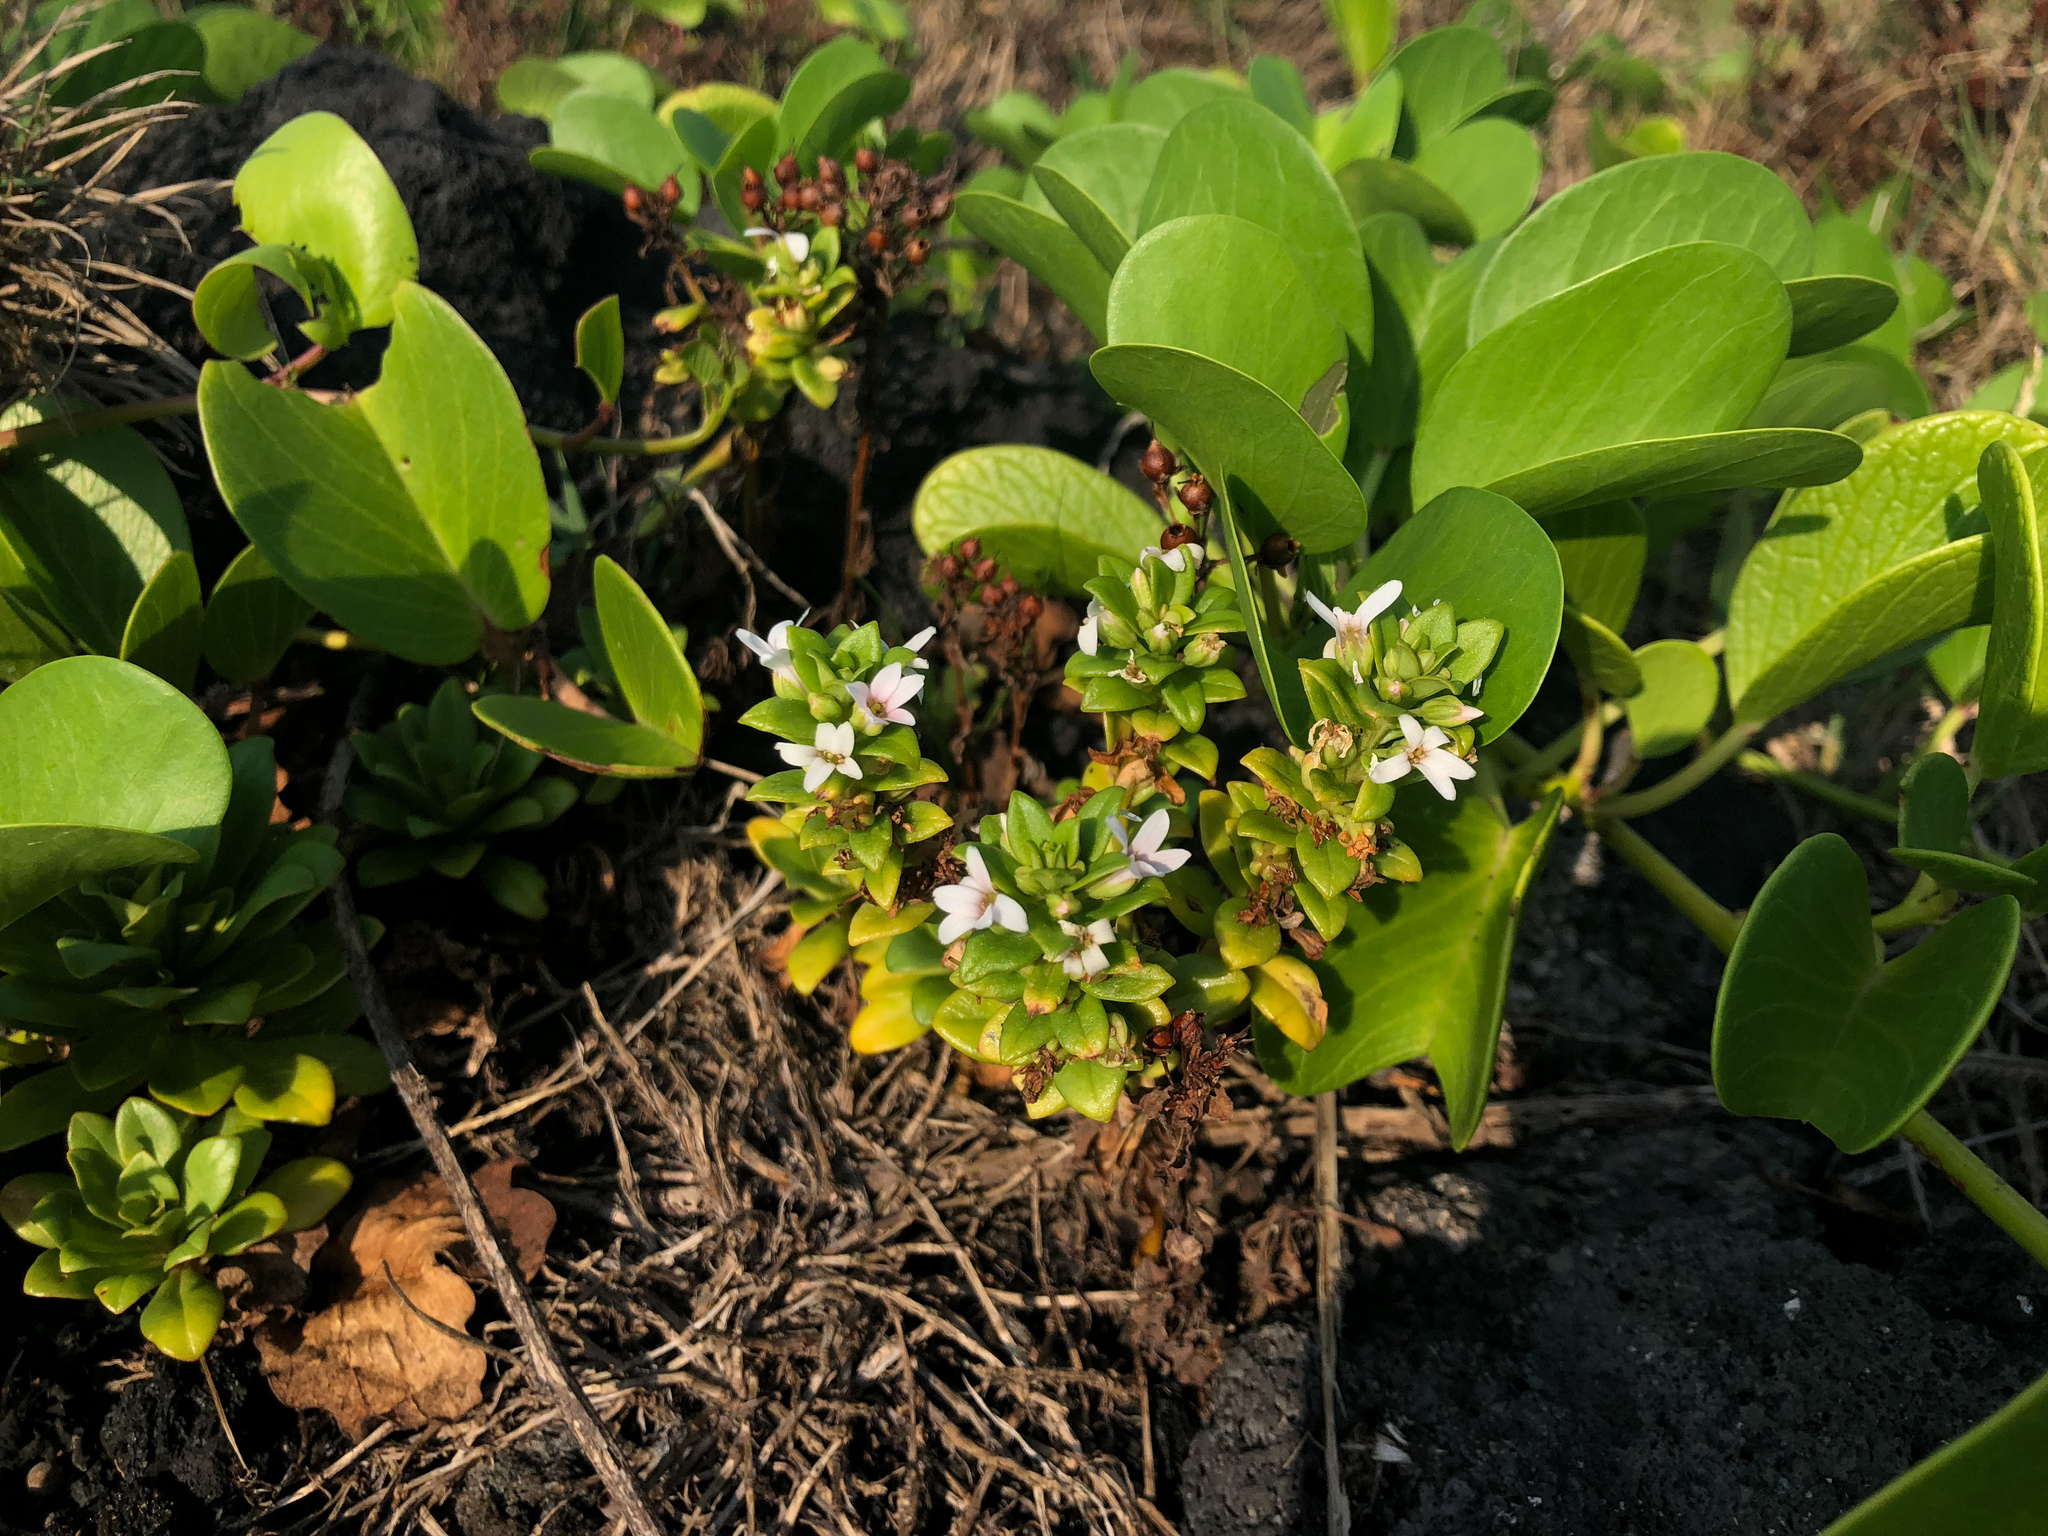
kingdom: Plantae
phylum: Tracheophyta
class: Magnoliopsida
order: Ericales
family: Primulaceae
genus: Lysimachia
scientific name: Lysimachia mauritiana
